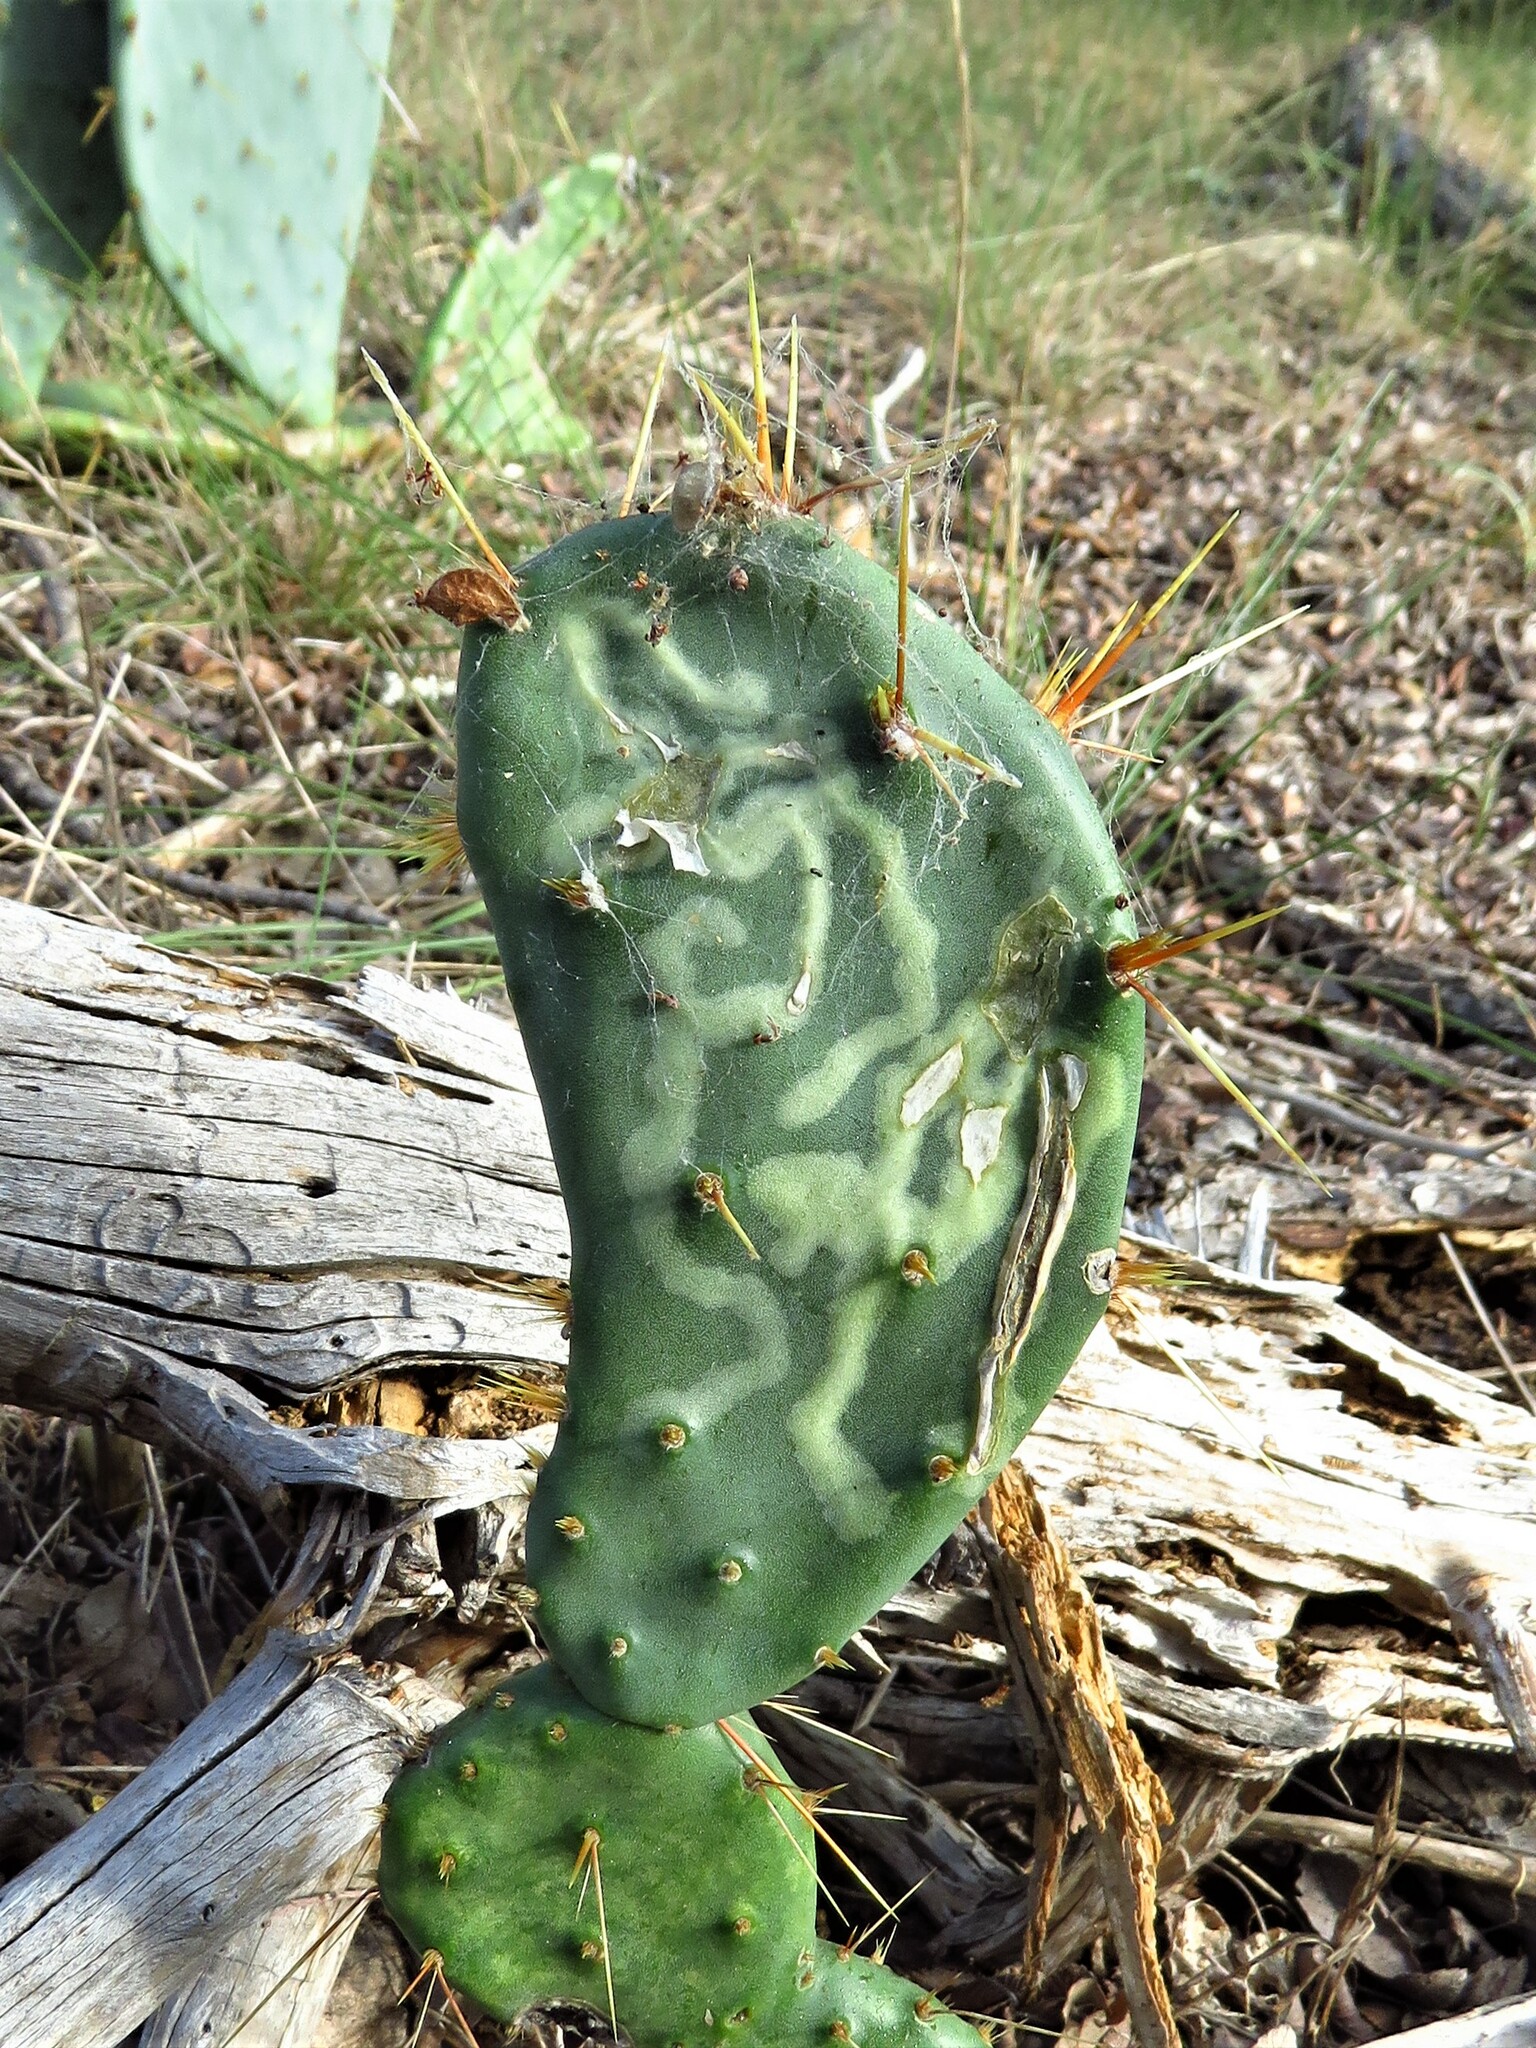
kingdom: Animalia
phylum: Arthropoda
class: Insecta
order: Lepidoptera
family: Gracillariidae
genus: Marmara
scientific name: Marmara opuntiella
